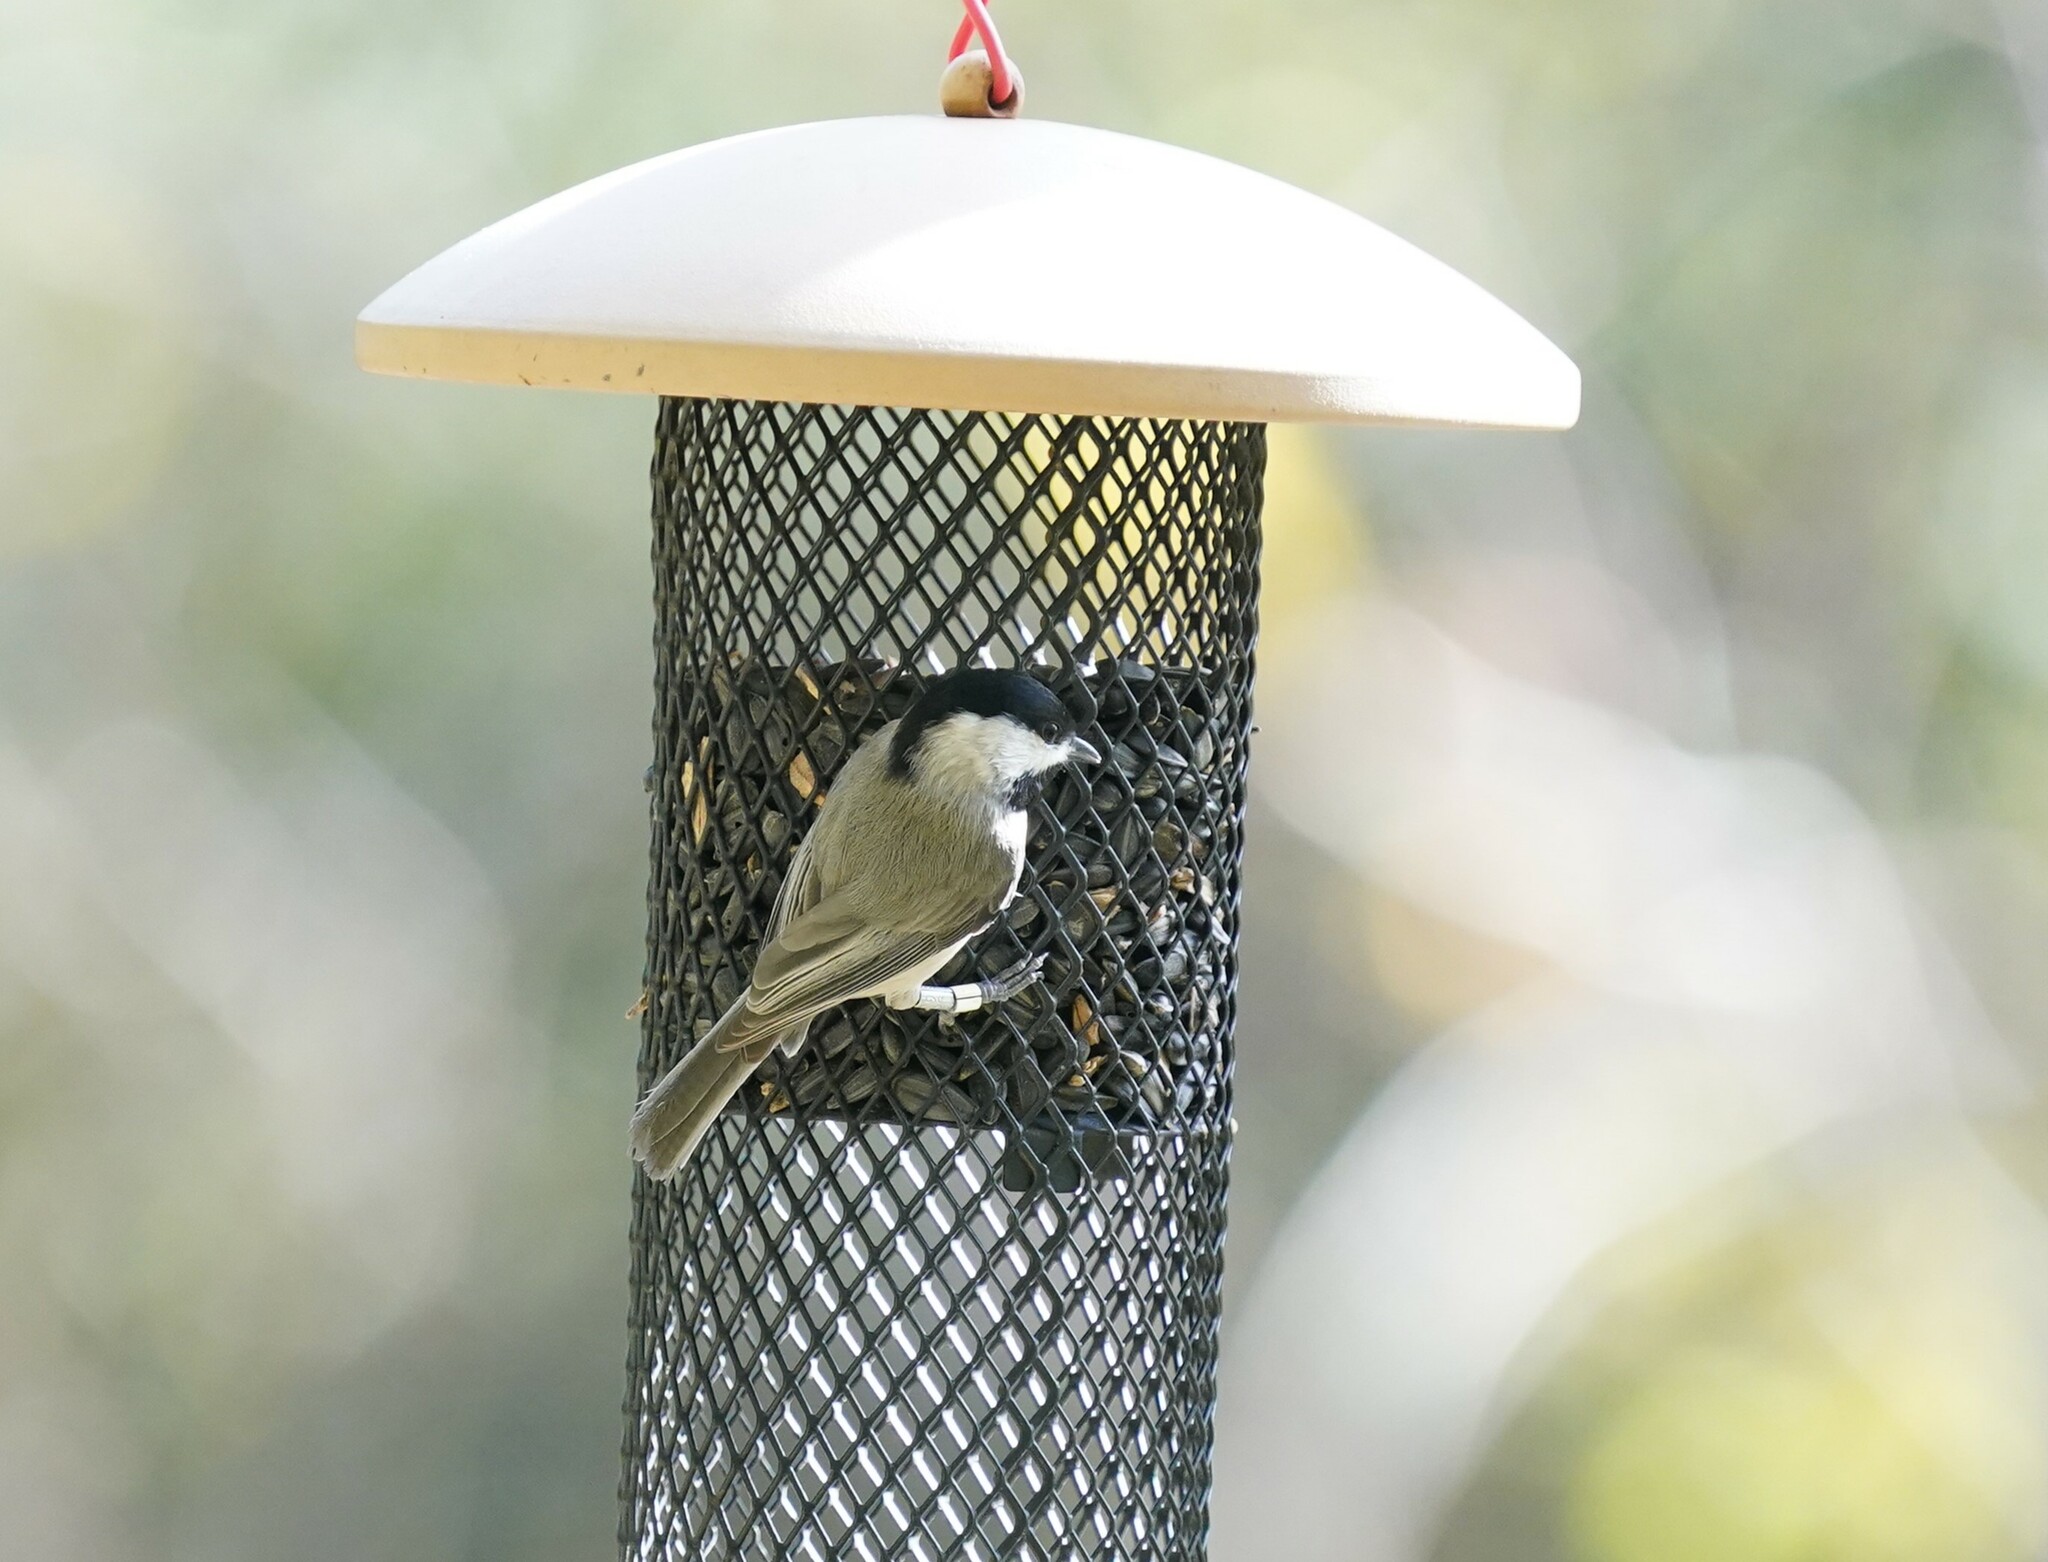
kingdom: Animalia
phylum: Chordata
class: Aves
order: Passeriformes
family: Paridae
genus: Poecile
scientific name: Poecile carolinensis
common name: Carolina chickadee
